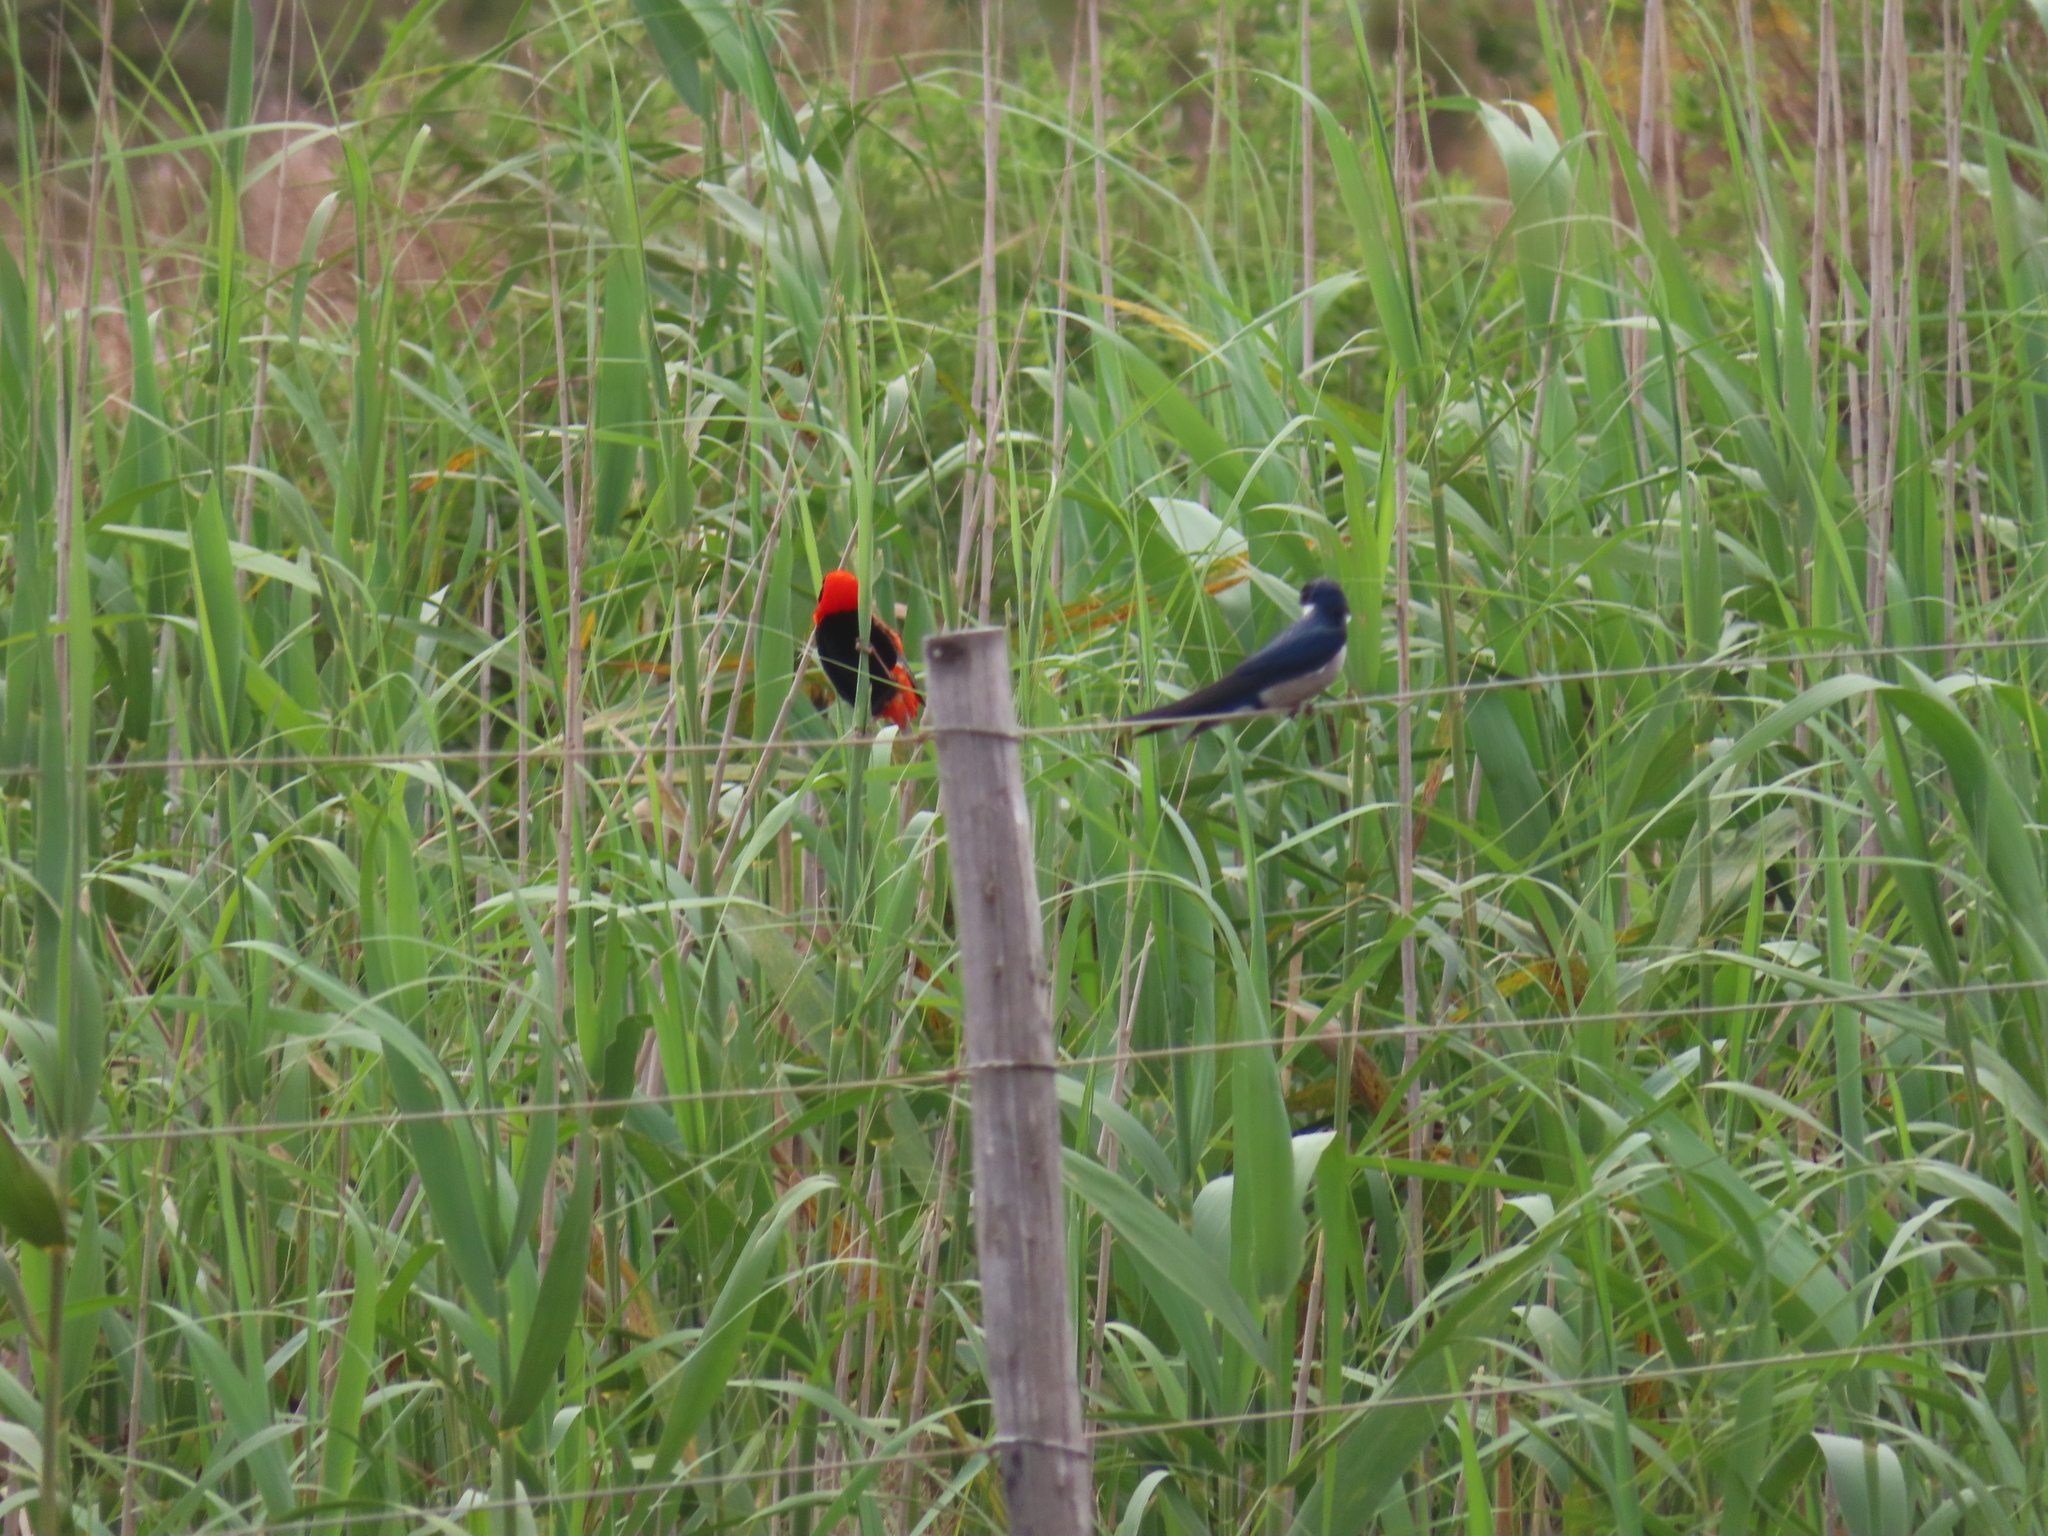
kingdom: Animalia
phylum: Chordata
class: Aves
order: Passeriformes
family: Ploceidae
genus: Euplectes
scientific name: Euplectes orix
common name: Southern red bishop
